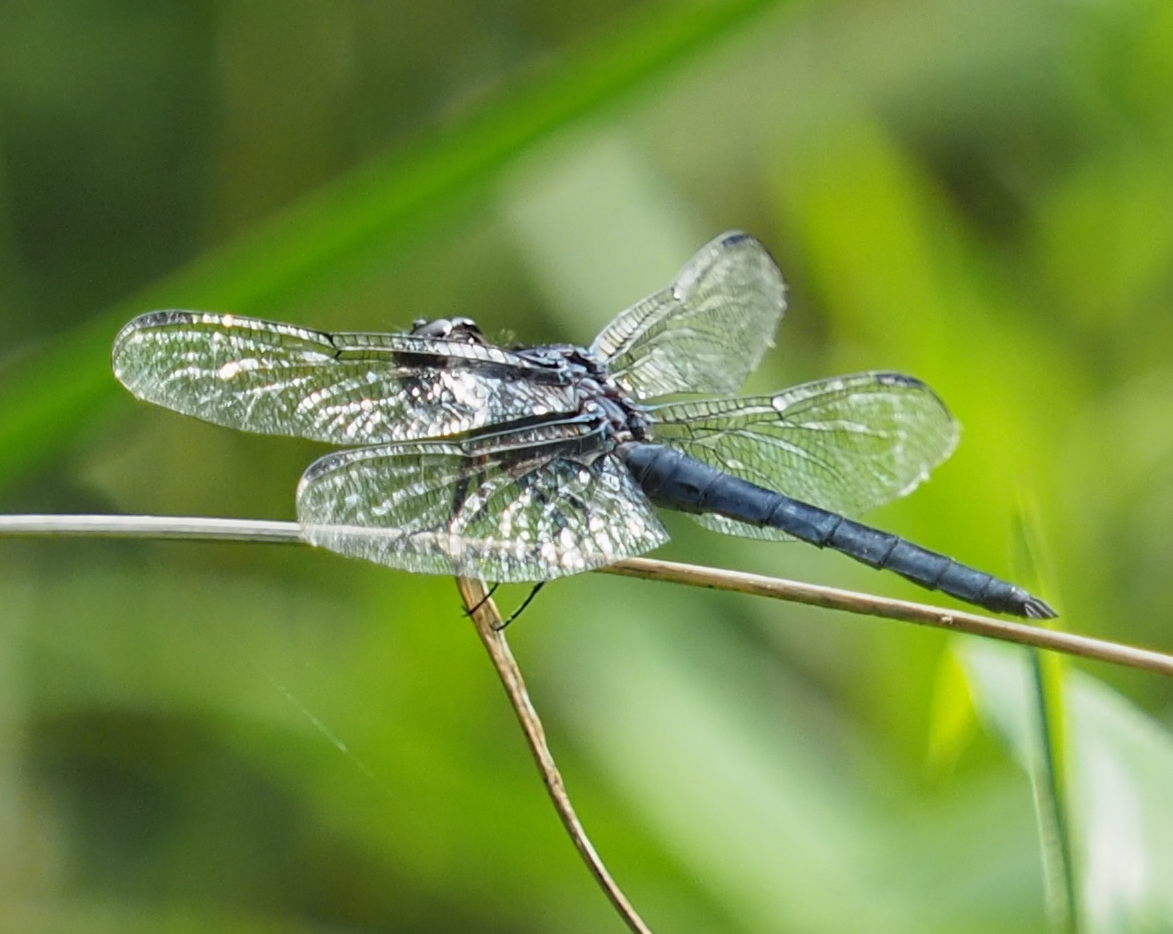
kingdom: Animalia
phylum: Arthropoda
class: Insecta
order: Odonata
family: Libellulidae
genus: Libellula
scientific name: Libellula incesta
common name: Slaty skimmer
